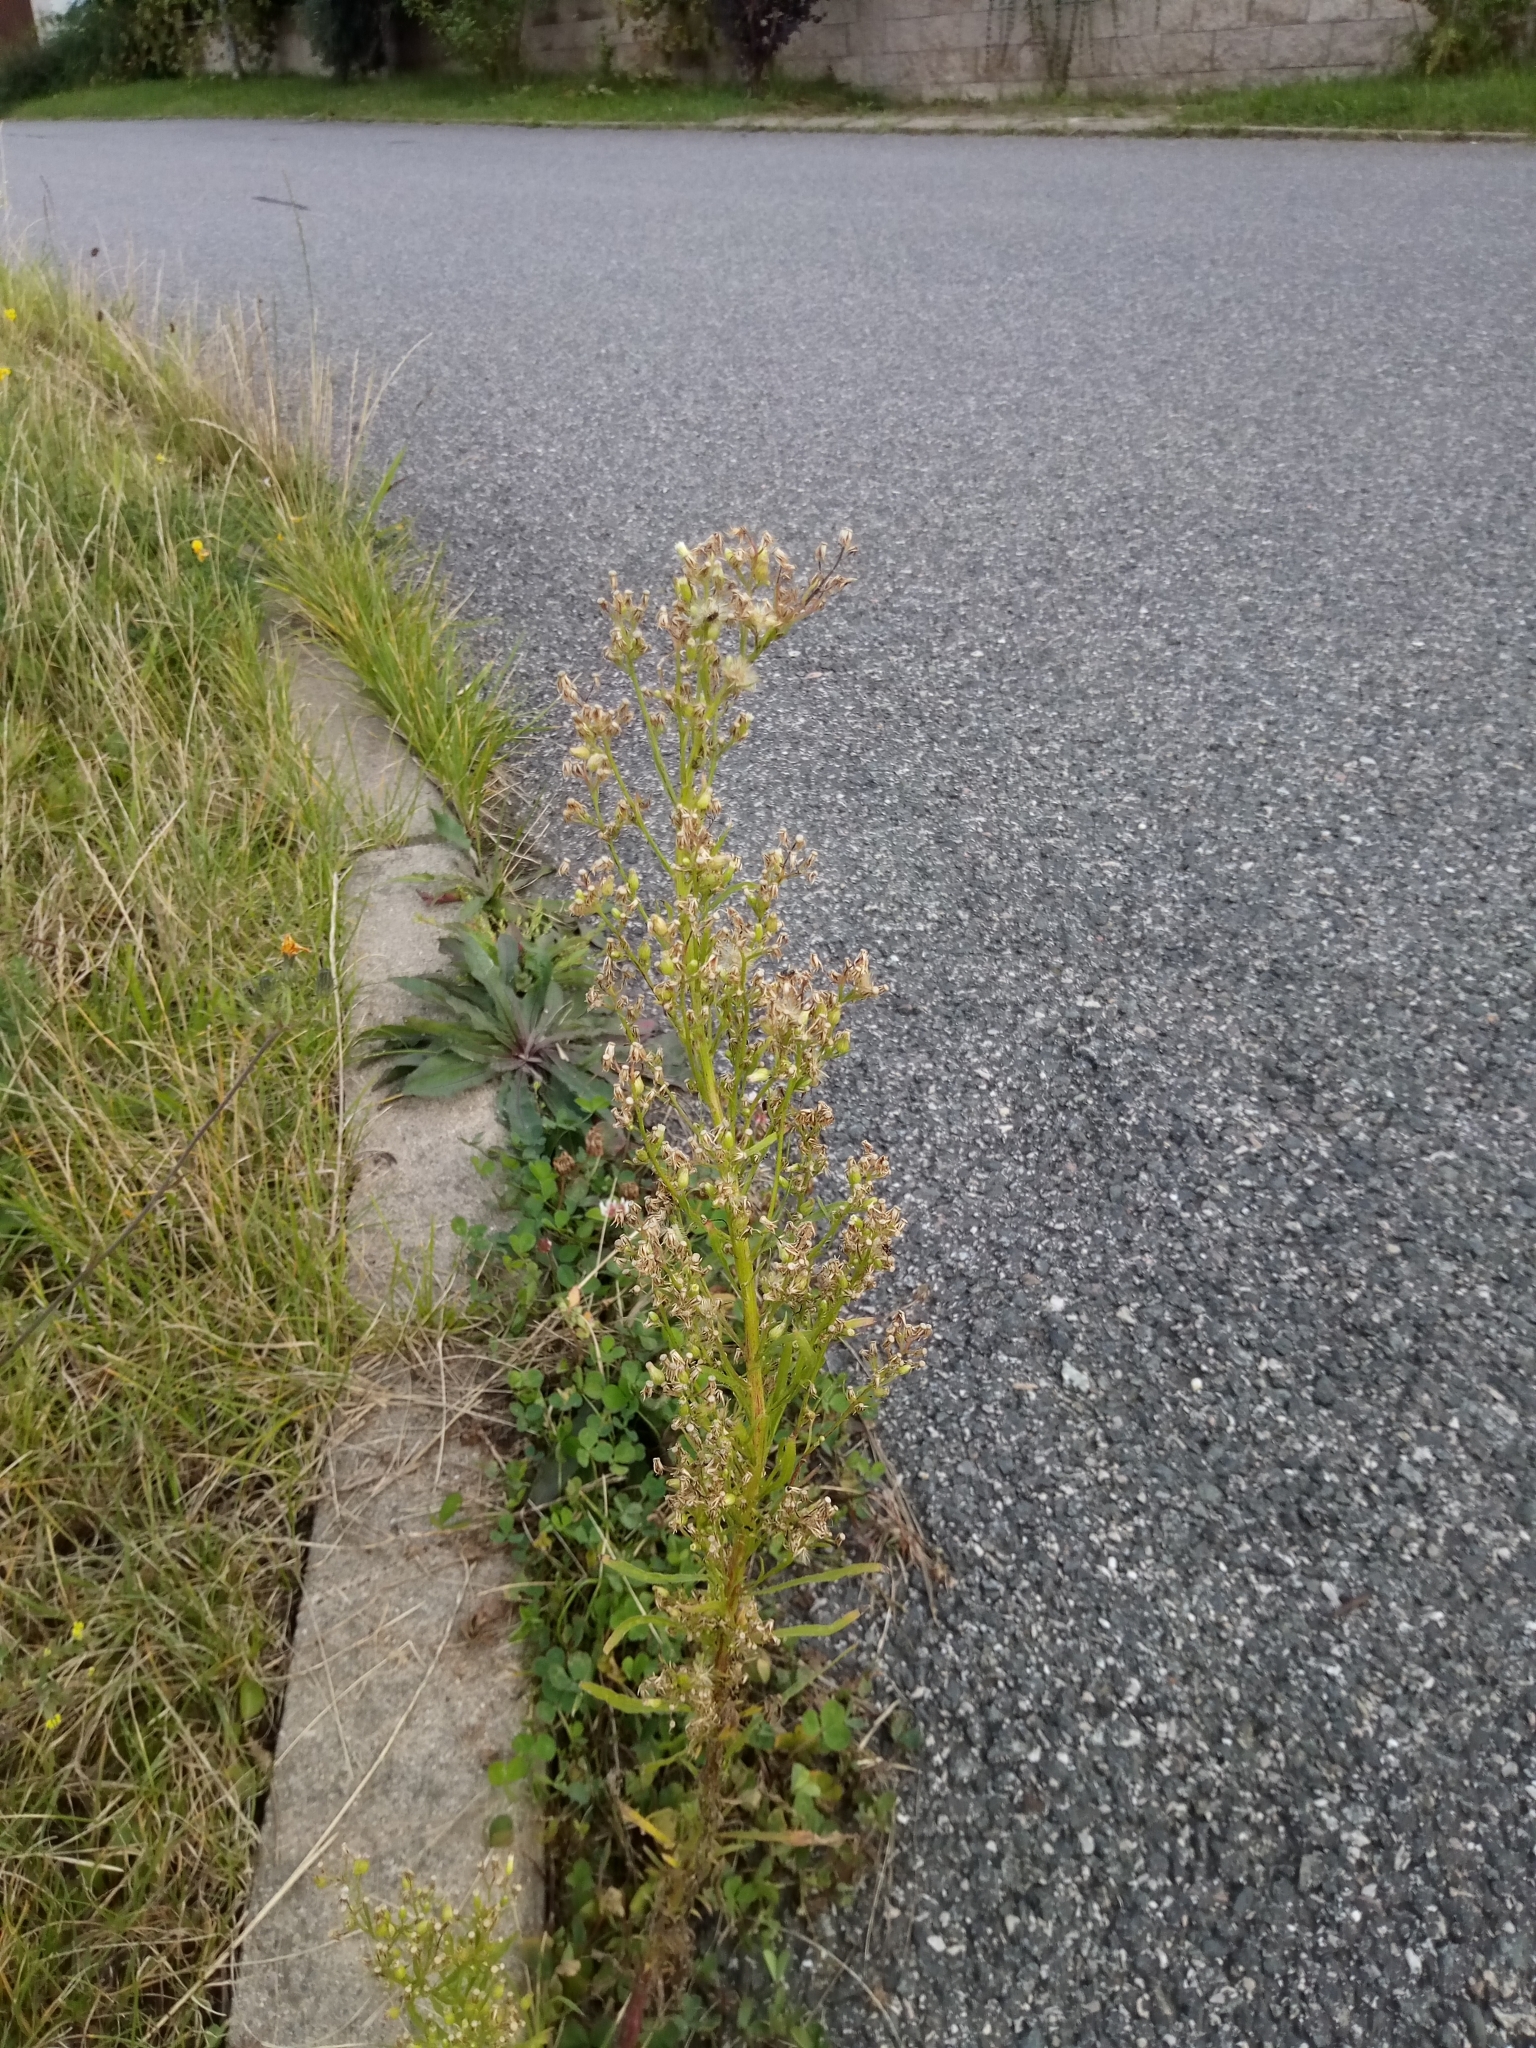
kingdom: Plantae
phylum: Tracheophyta
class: Magnoliopsida
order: Asterales
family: Asteraceae
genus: Erigeron
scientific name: Erigeron canadensis
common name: Canadian fleabane
